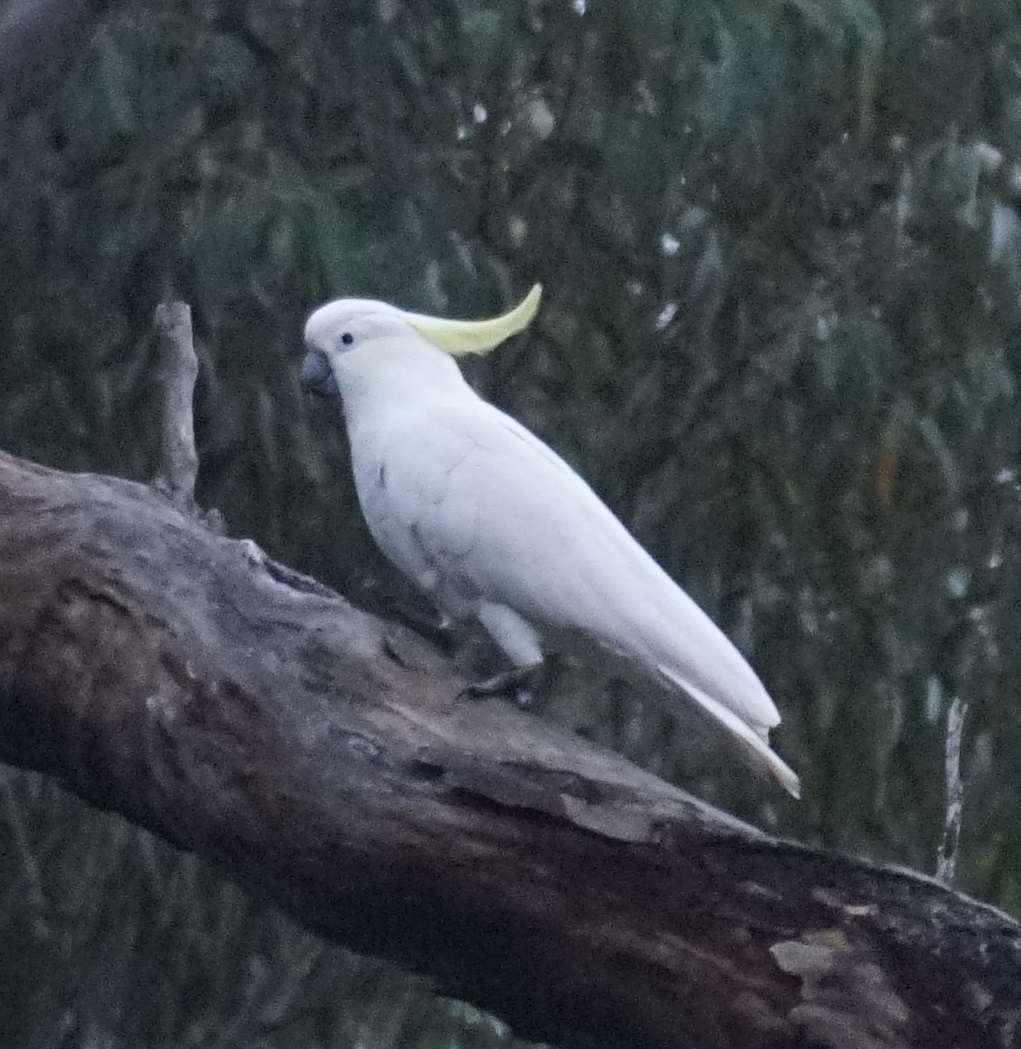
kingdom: Animalia
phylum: Chordata
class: Aves
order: Psittaciformes
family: Psittacidae
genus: Cacatua
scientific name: Cacatua galerita
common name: Sulphur-crested cockatoo
